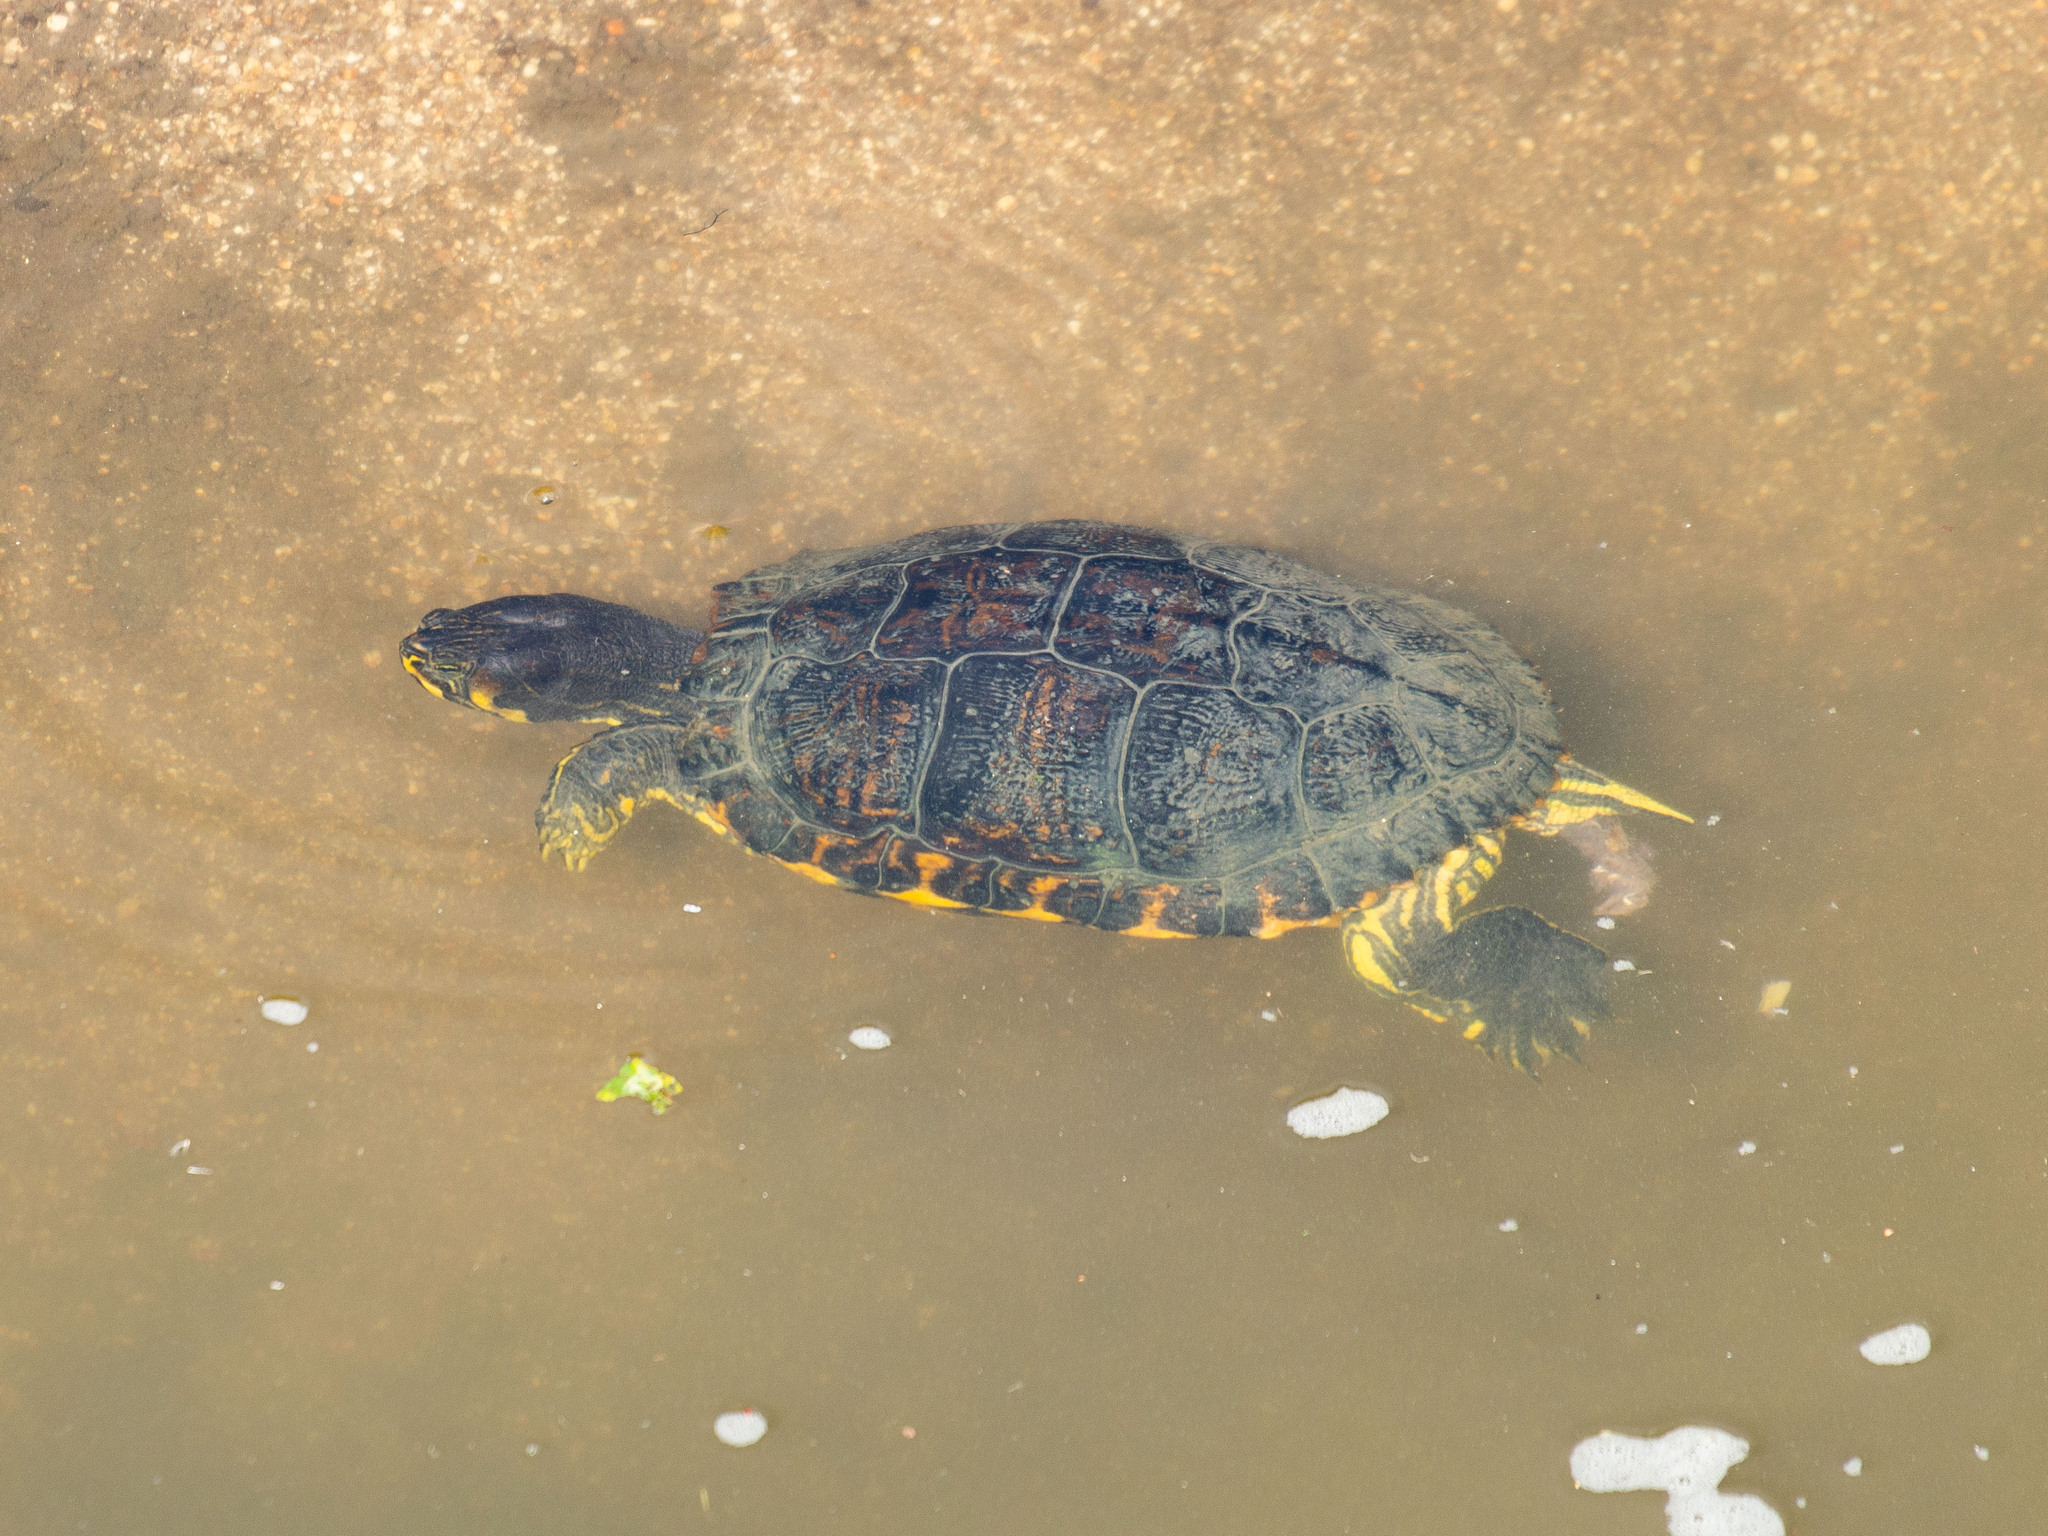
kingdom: Animalia
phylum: Chordata
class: Testudines
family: Emydidae
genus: Trachemys
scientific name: Trachemys scripta
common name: Slider
